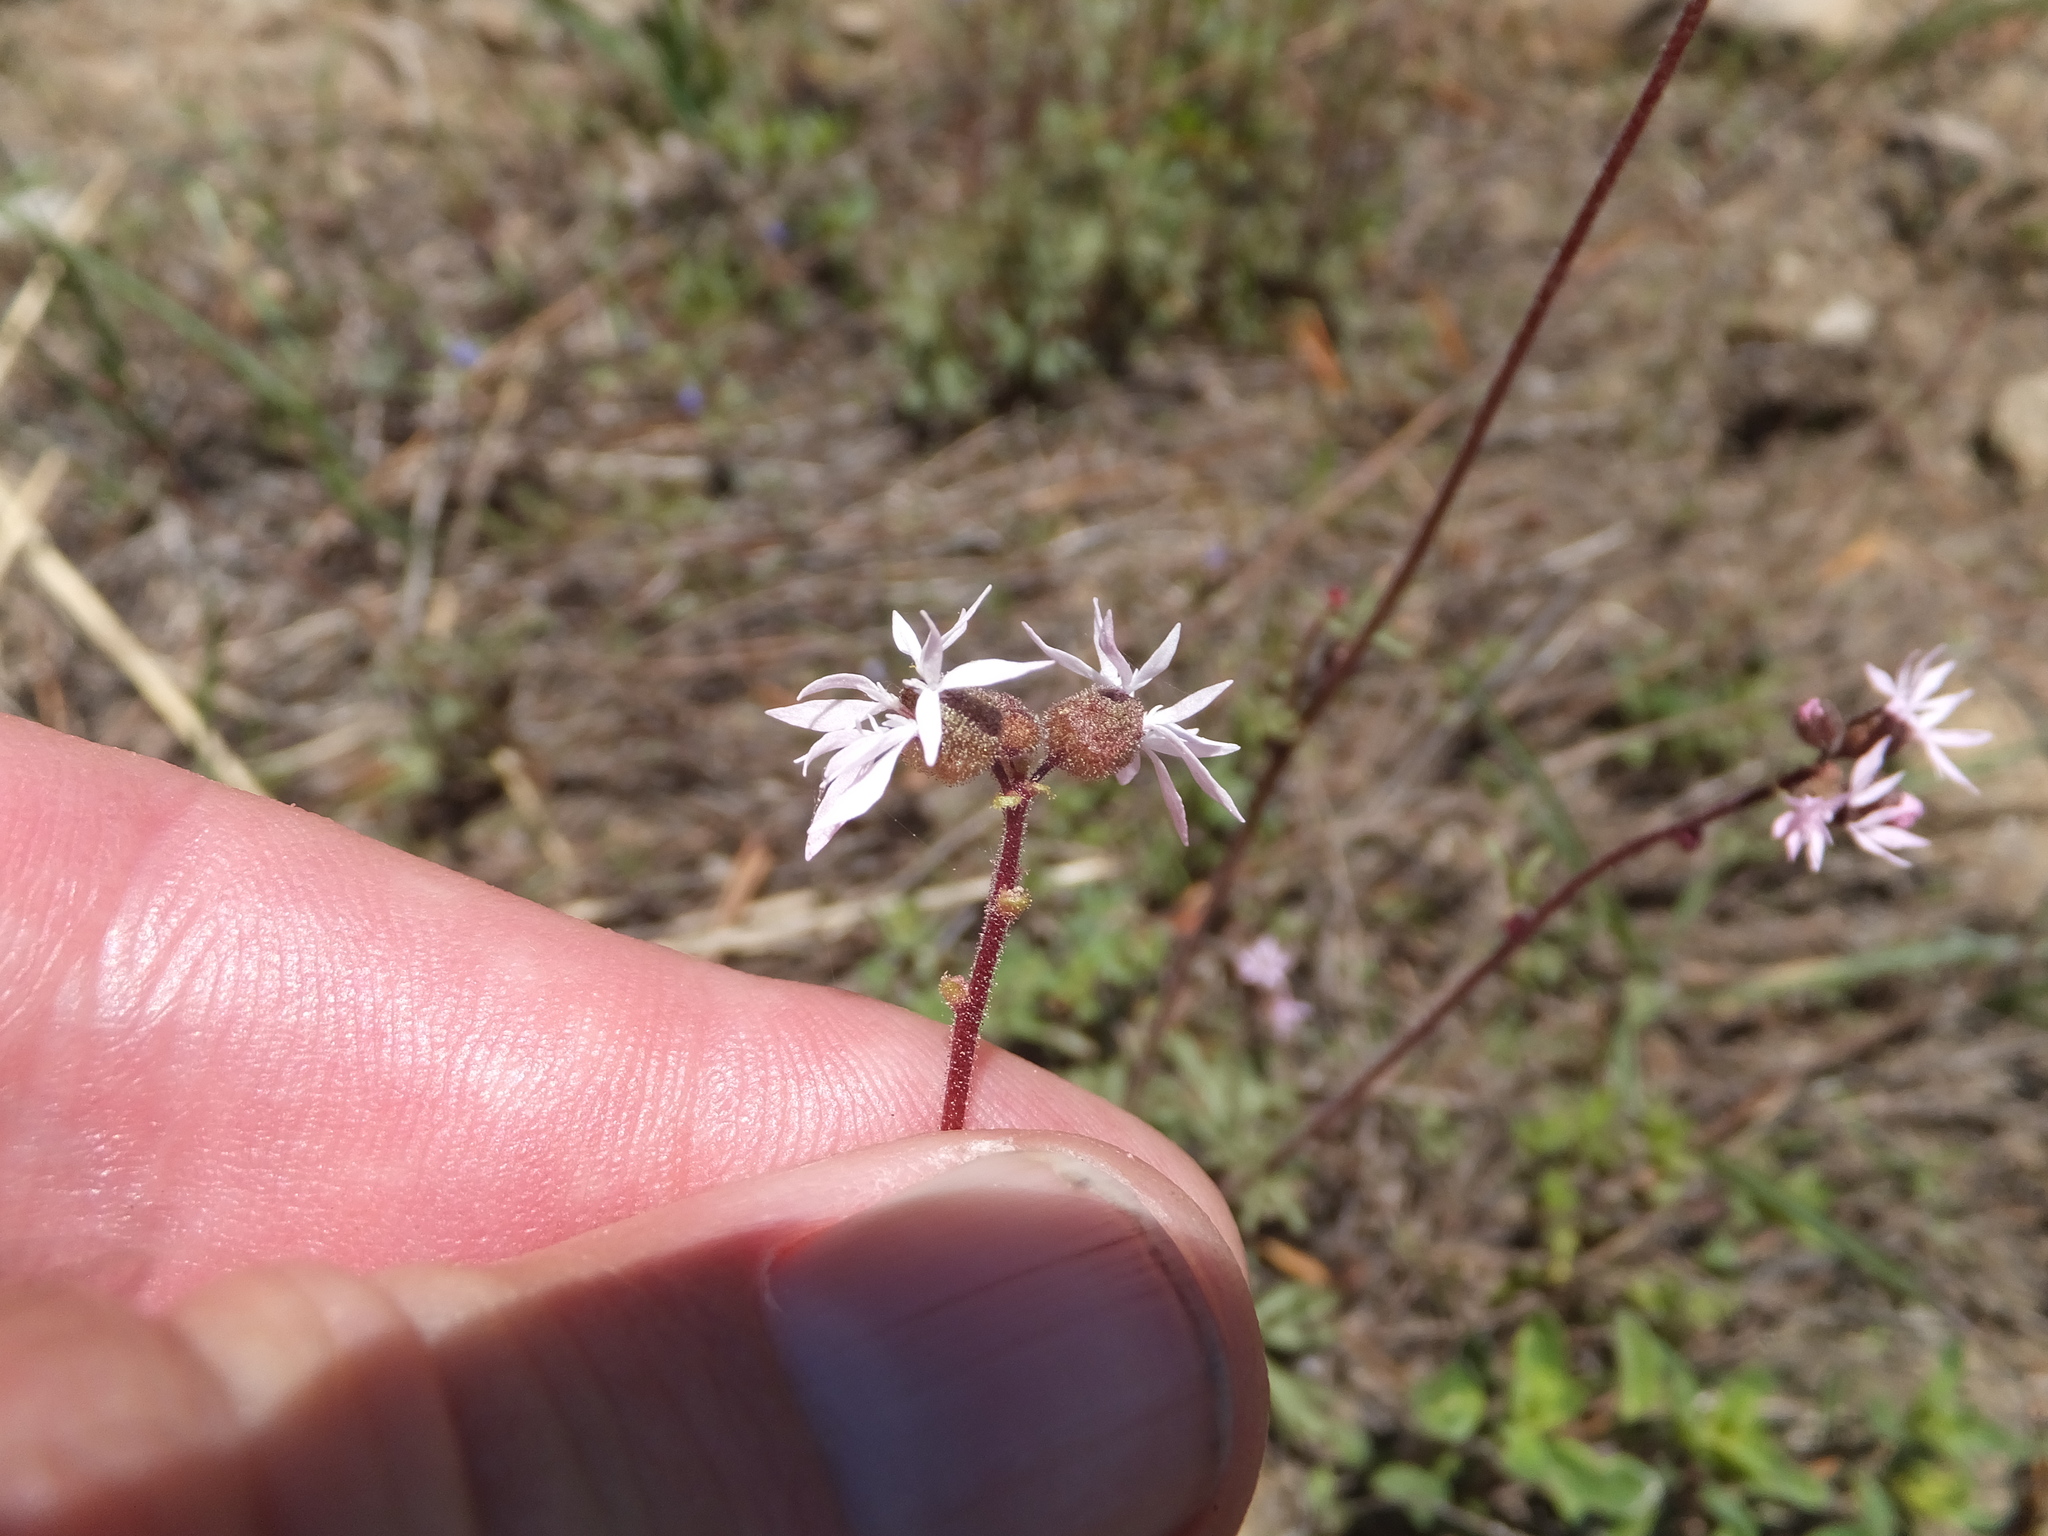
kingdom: Plantae
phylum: Tracheophyta
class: Magnoliopsida
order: Saxifragales
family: Saxifragaceae
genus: Lithophragma
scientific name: Lithophragma glabrum
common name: Bulbous prairie-star
